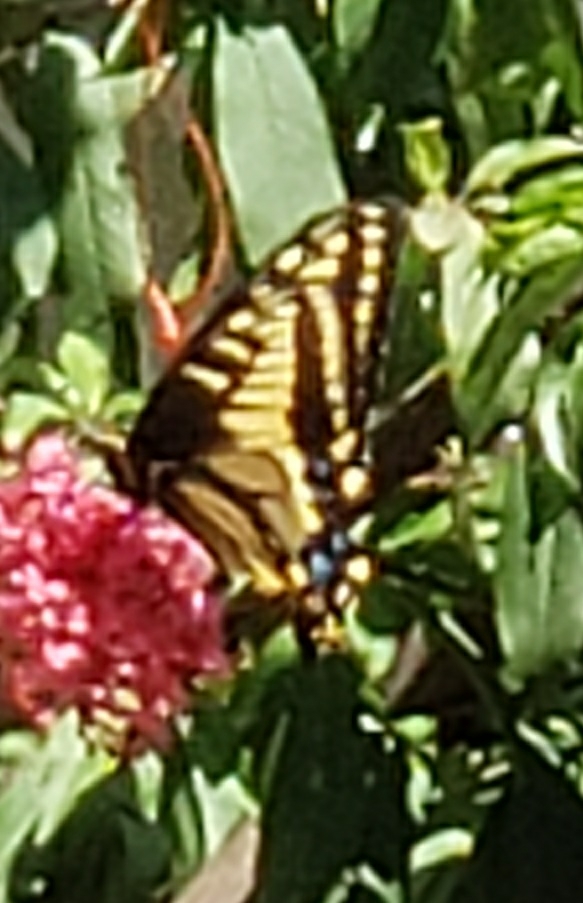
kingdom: Animalia
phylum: Arthropoda
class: Insecta
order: Lepidoptera
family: Papilionidae
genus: Papilio
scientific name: Papilio zelicaon
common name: Anise swallowtail
